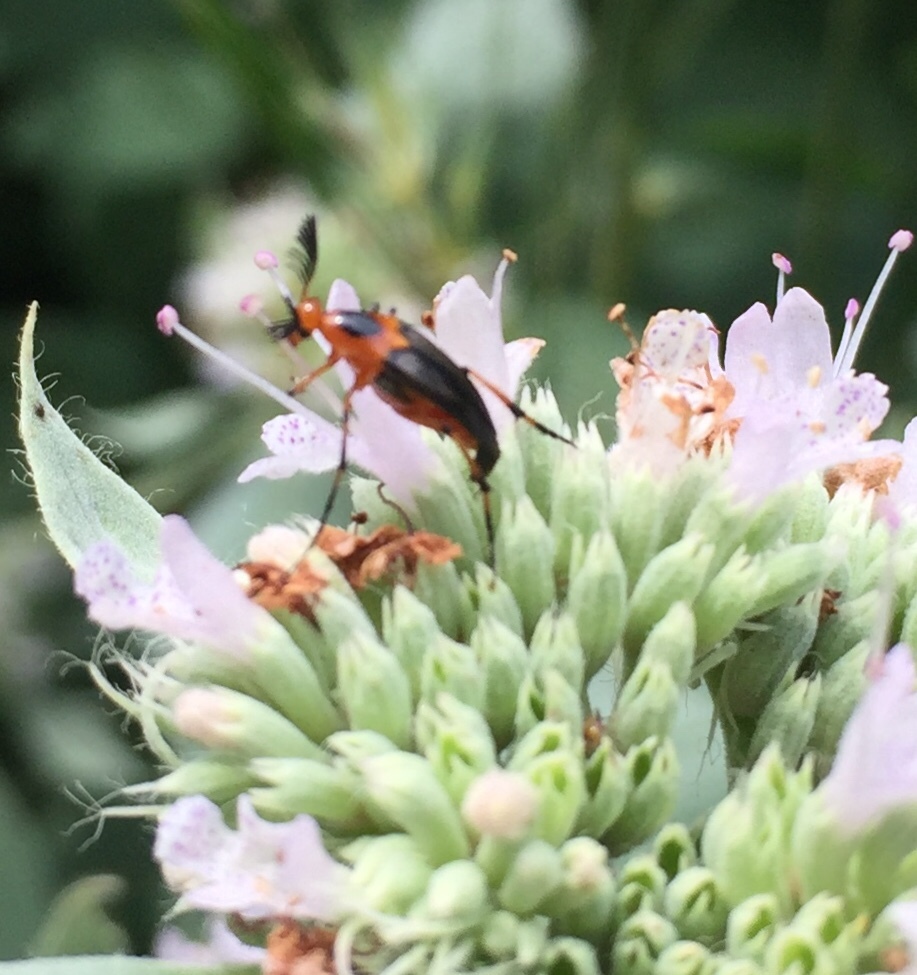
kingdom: Animalia
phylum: Arthropoda
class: Insecta
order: Coleoptera
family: Ripiphoridae
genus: Macrosiagon
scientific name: Macrosiagon limbatum
